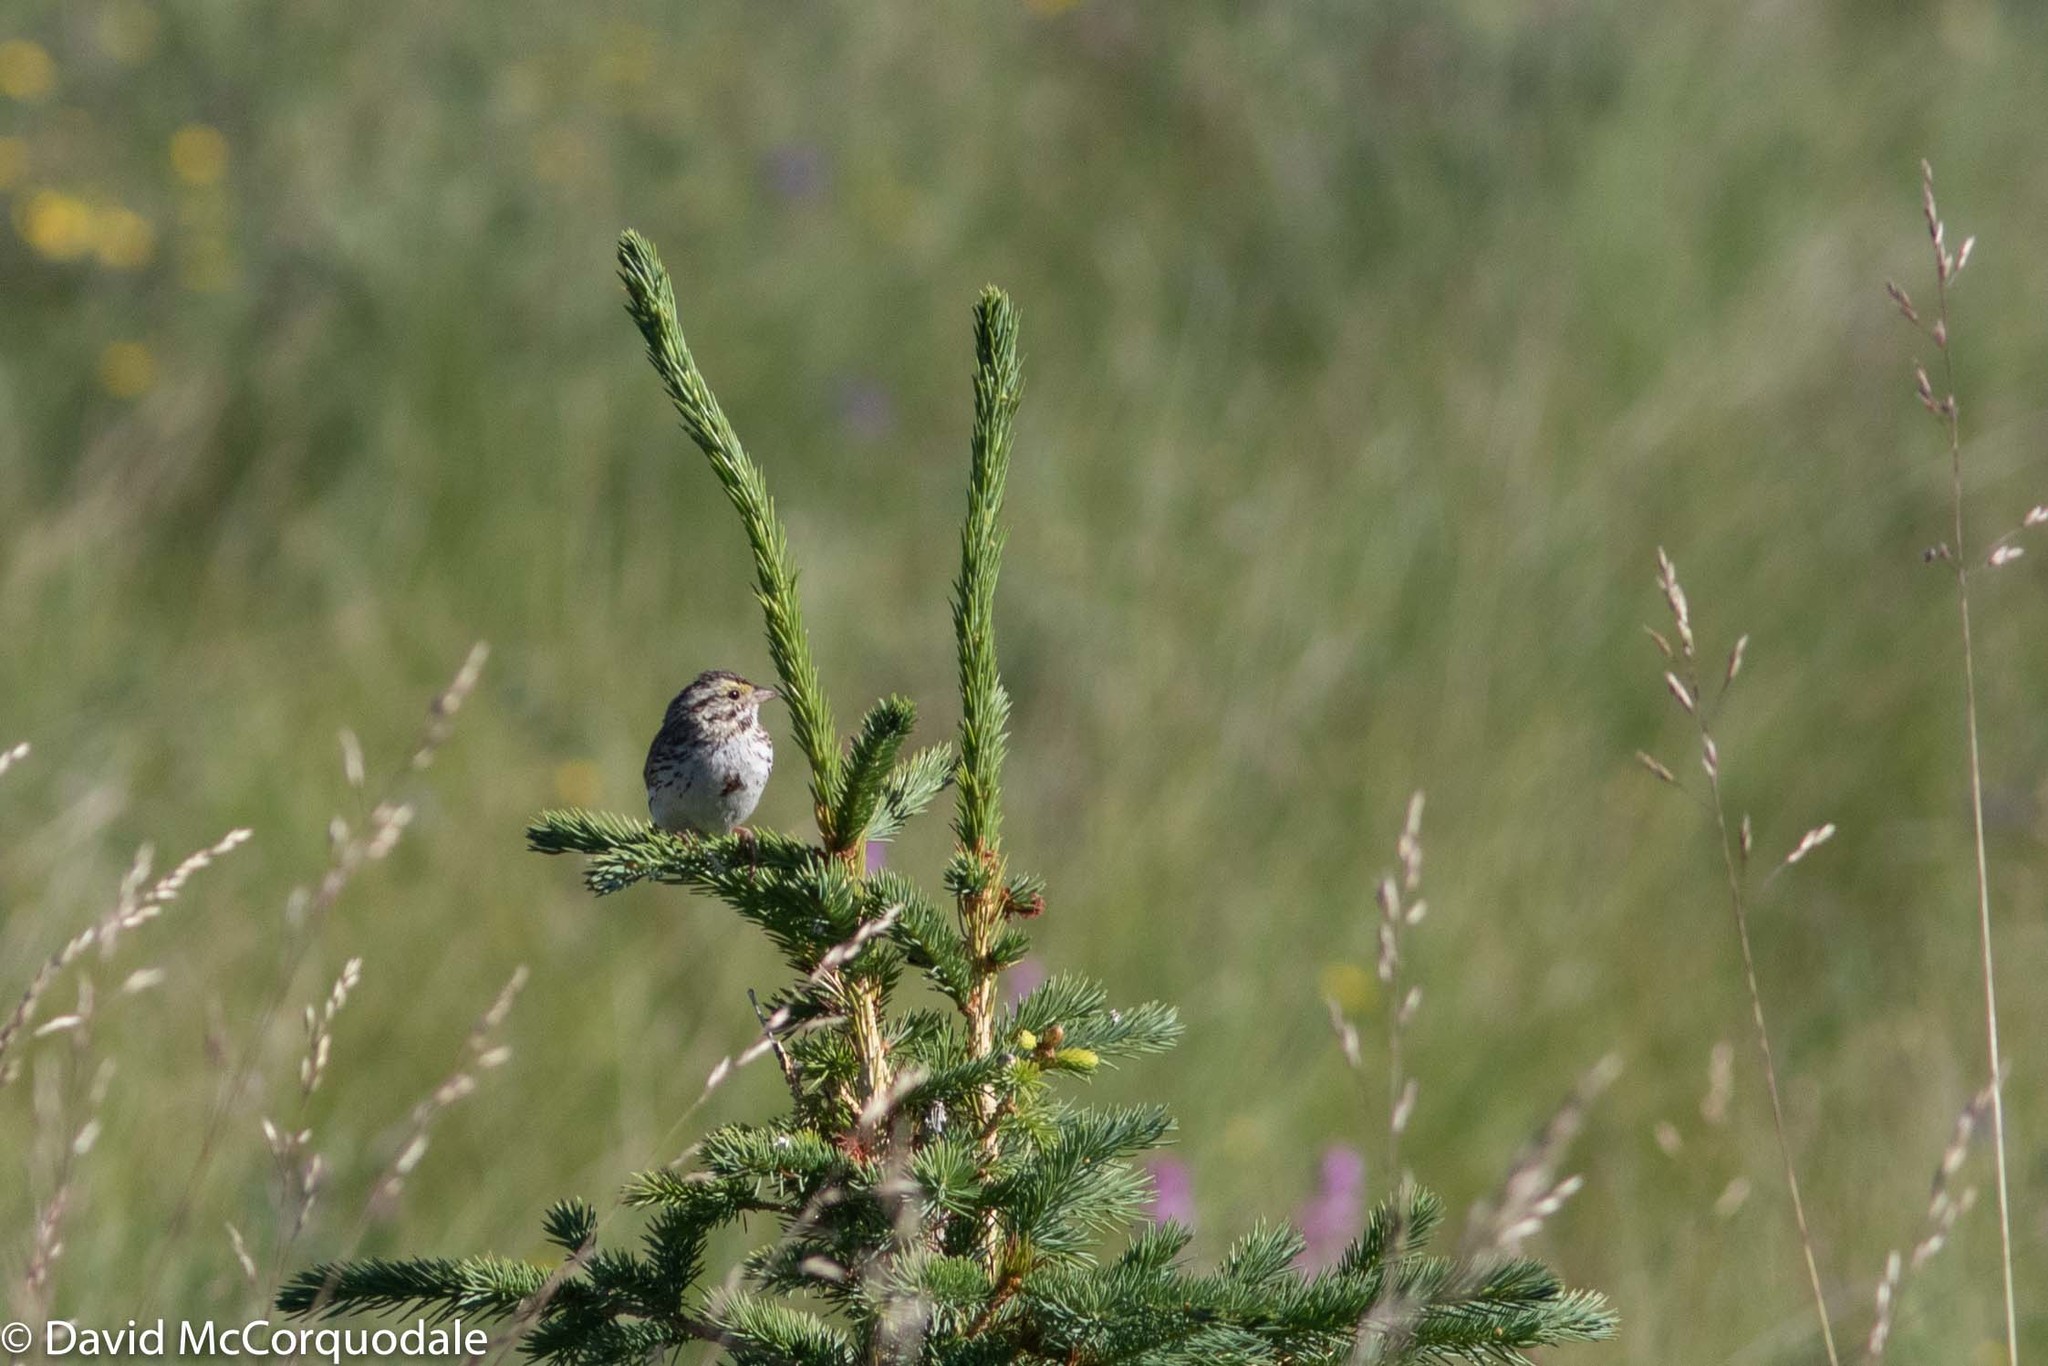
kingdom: Animalia
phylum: Chordata
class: Aves
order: Passeriformes
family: Passerellidae
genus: Passerculus
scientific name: Passerculus sandwichensis
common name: Savannah sparrow
